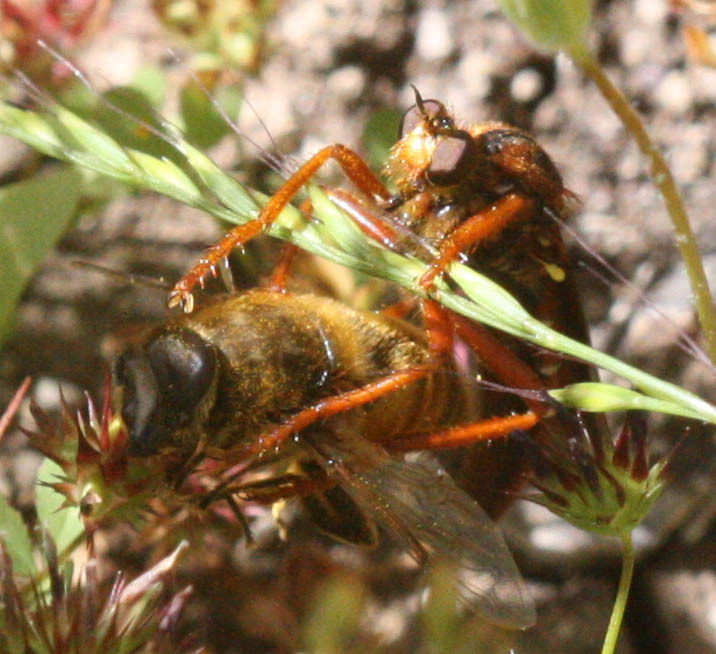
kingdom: Animalia
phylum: Arthropoda
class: Insecta
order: Diptera
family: Asilidae
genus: Callinicus
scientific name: Callinicus calcaneus
